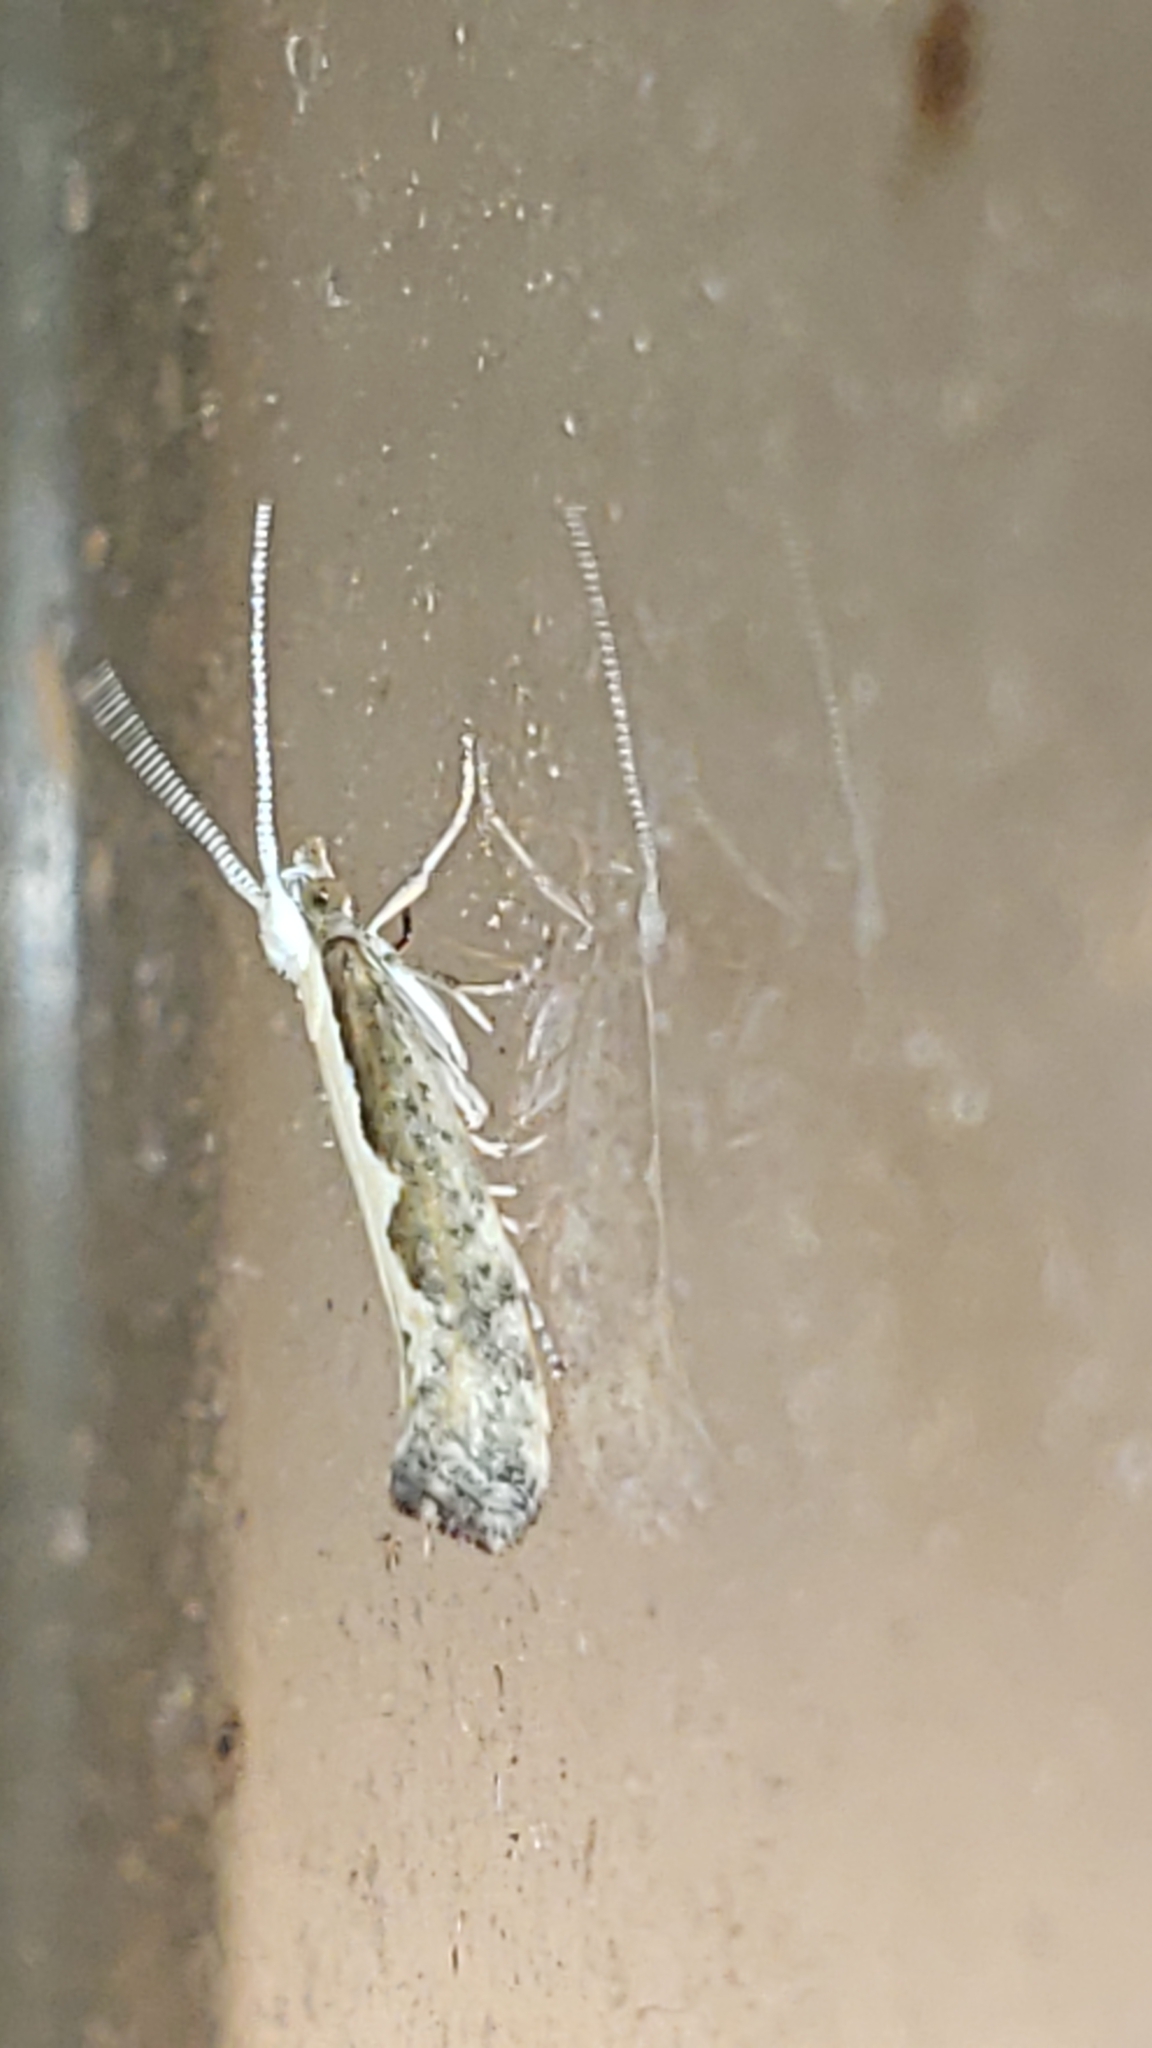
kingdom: Animalia
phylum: Arthropoda
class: Insecta
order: Lepidoptera
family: Plutellidae
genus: Plutella
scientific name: Plutella xylostella
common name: Diamond-back moth
